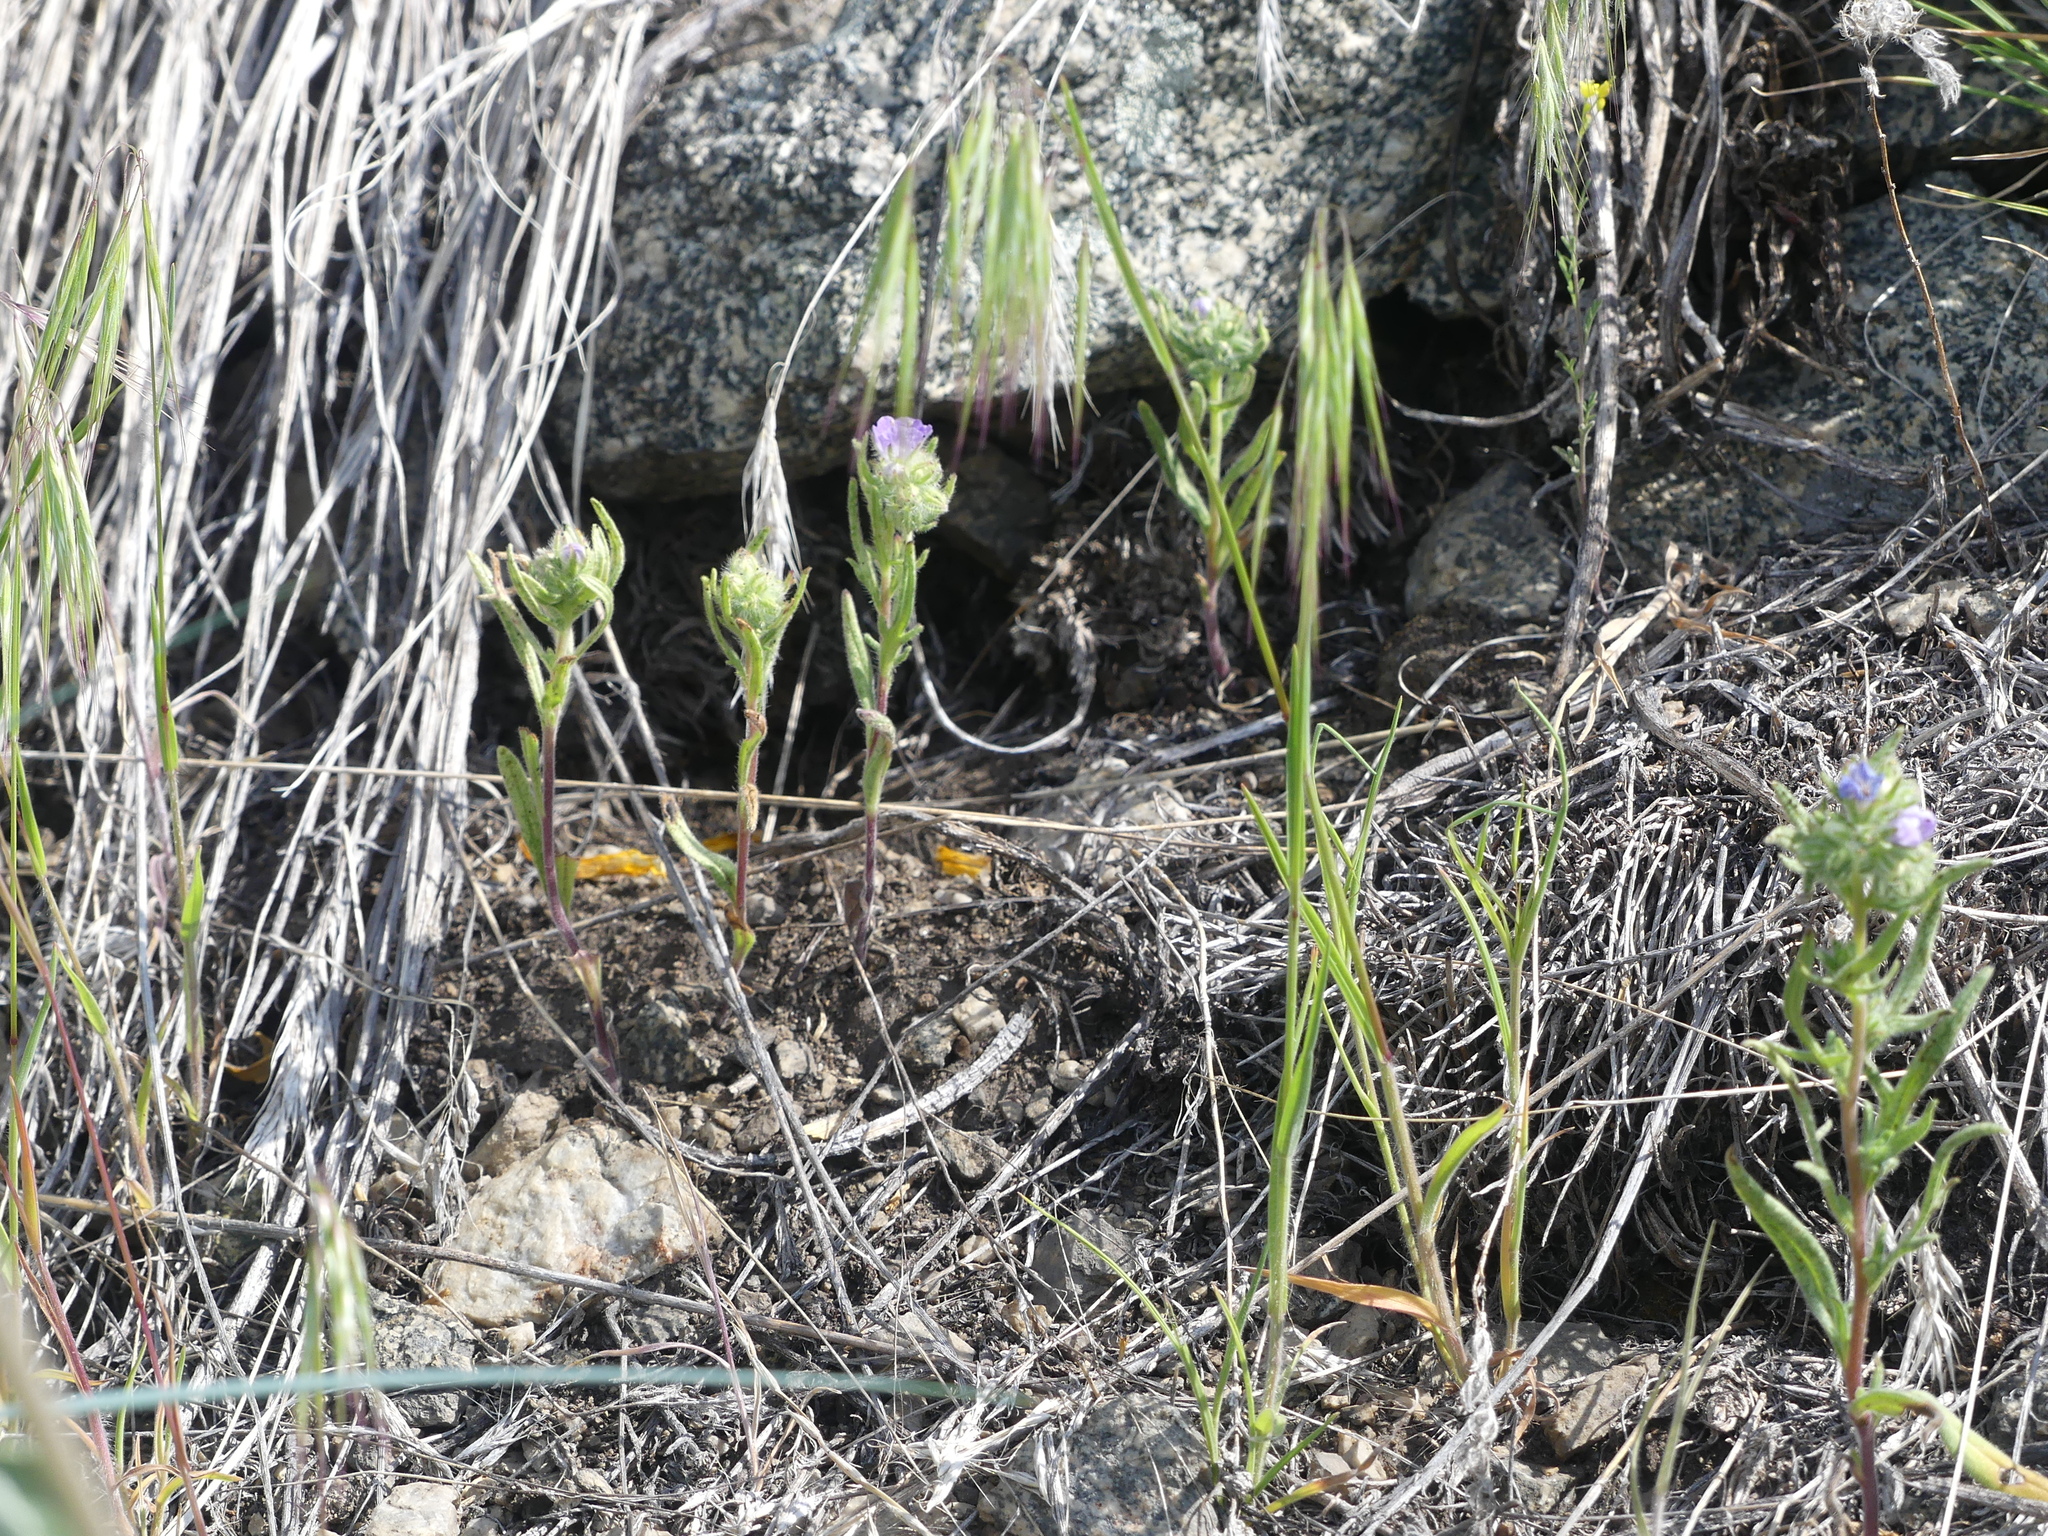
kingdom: Plantae
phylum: Tracheophyta
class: Magnoliopsida
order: Boraginales
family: Hydrophyllaceae
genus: Phacelia
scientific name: Phacelia linearis
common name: Linear-leaved phacelia
